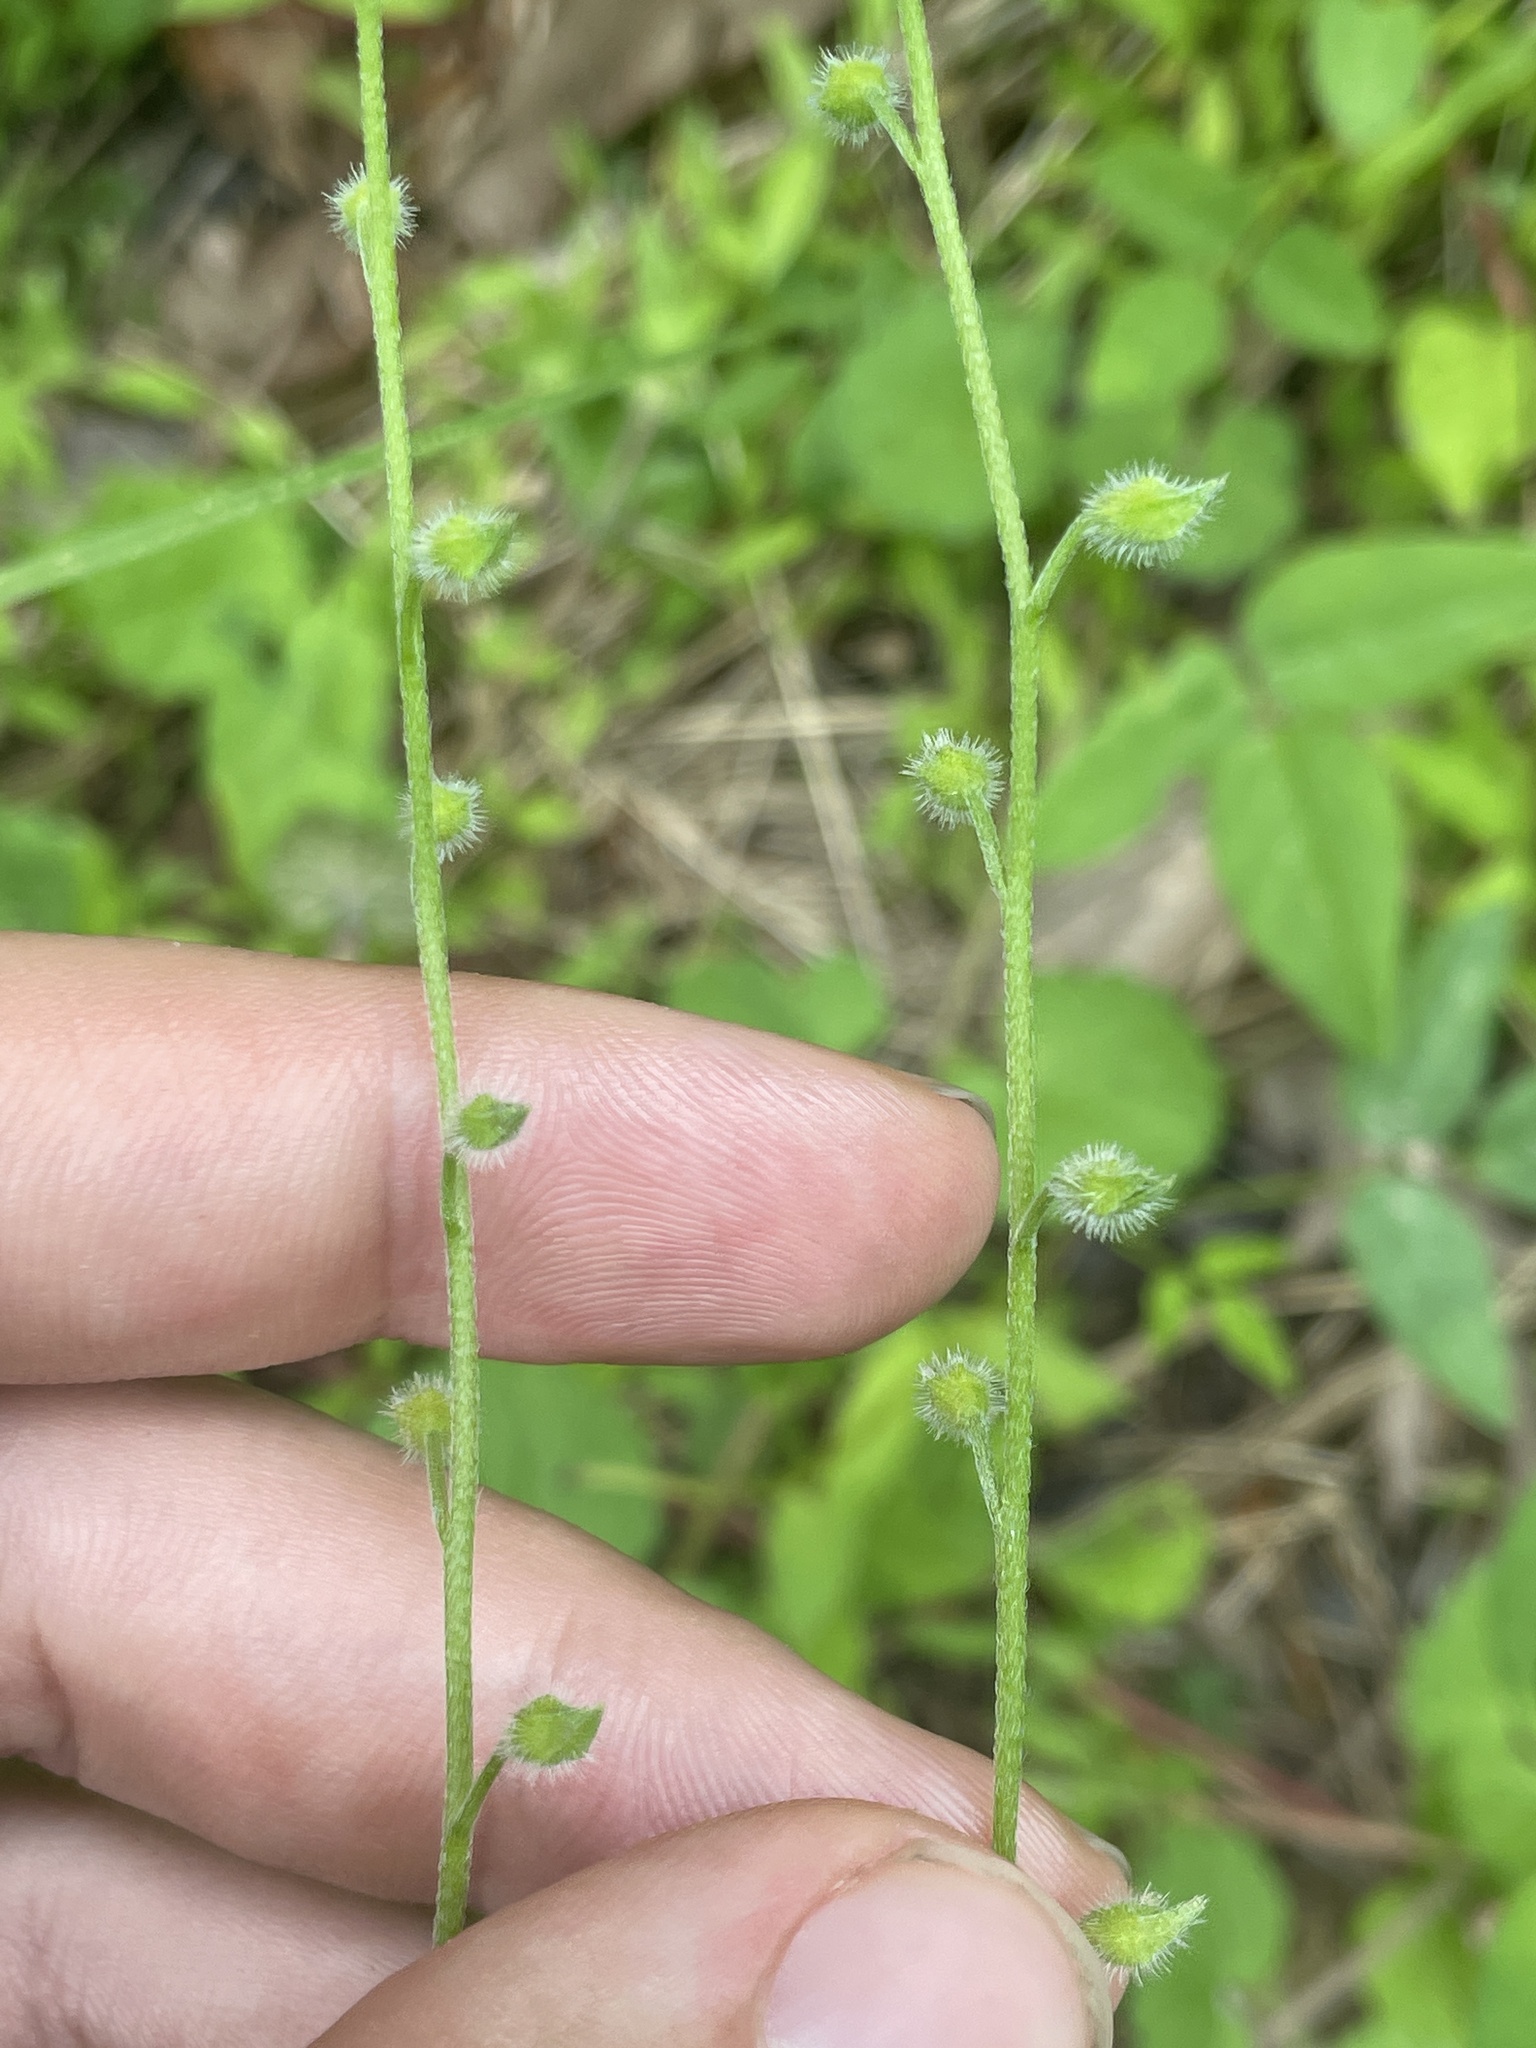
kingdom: Plantae
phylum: Tracheophyta
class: Magnoliopsida
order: Boraginales
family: Boraginaceae
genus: Myosotis
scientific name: Myosotis macrosperma
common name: Large-seed forget-me-not
